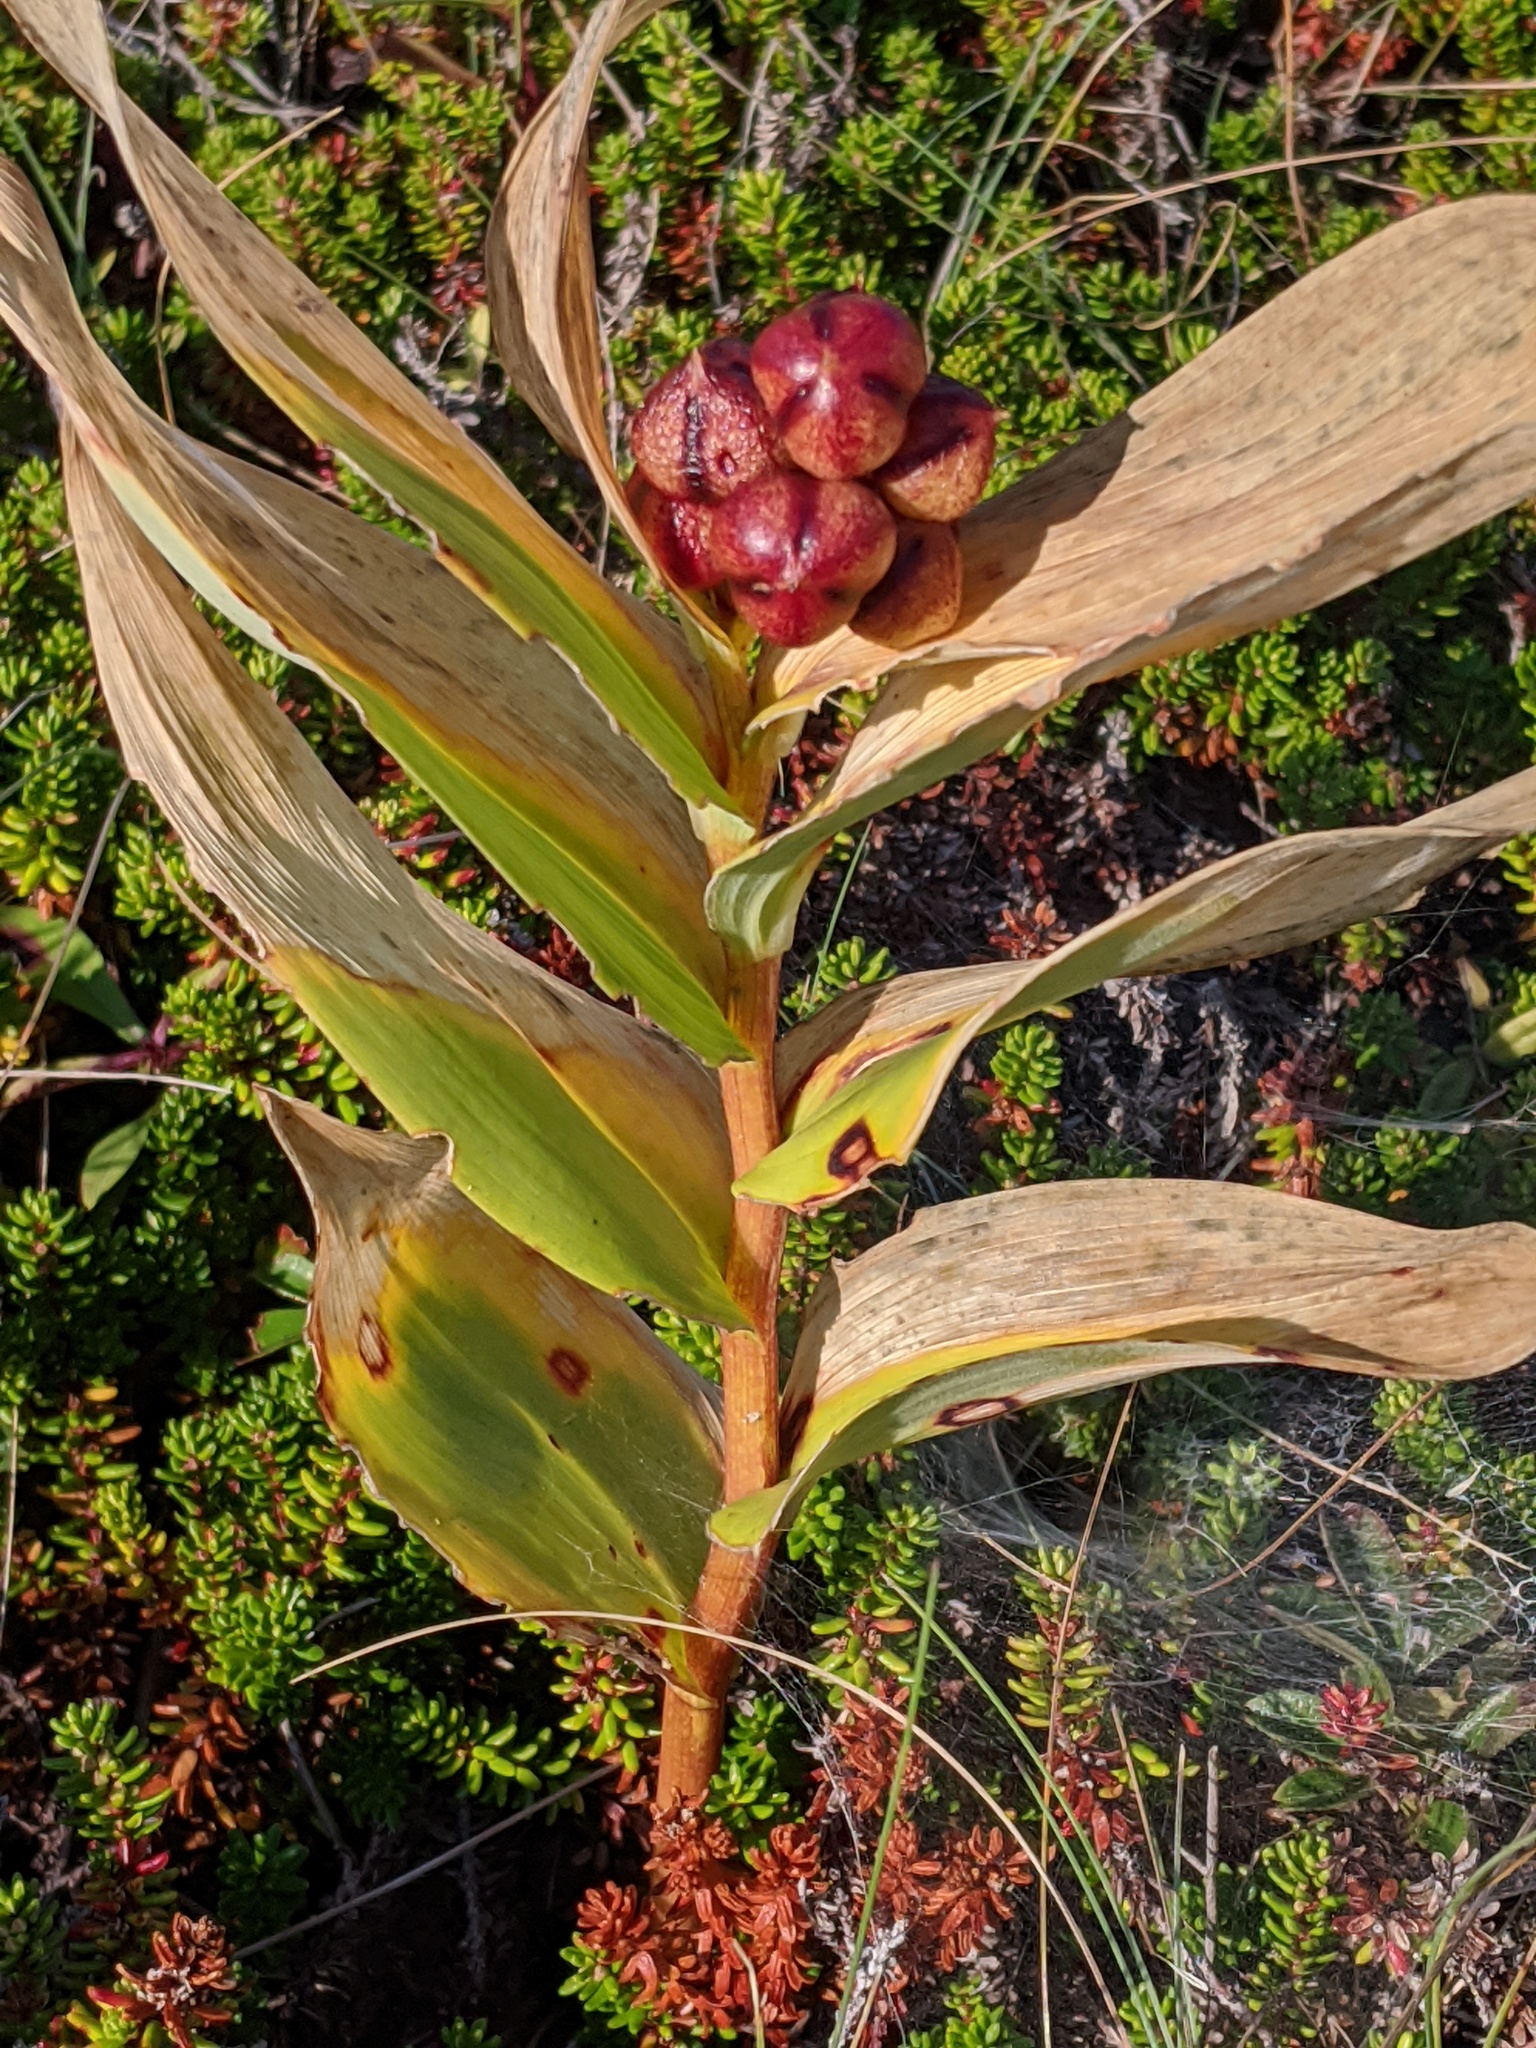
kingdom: Plantae
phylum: Tracheophyta
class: Liliopsida
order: Asparagales
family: Asparagaceae
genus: Maianthemum
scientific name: Maianthemum stellatum
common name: Little false solomon's seal
